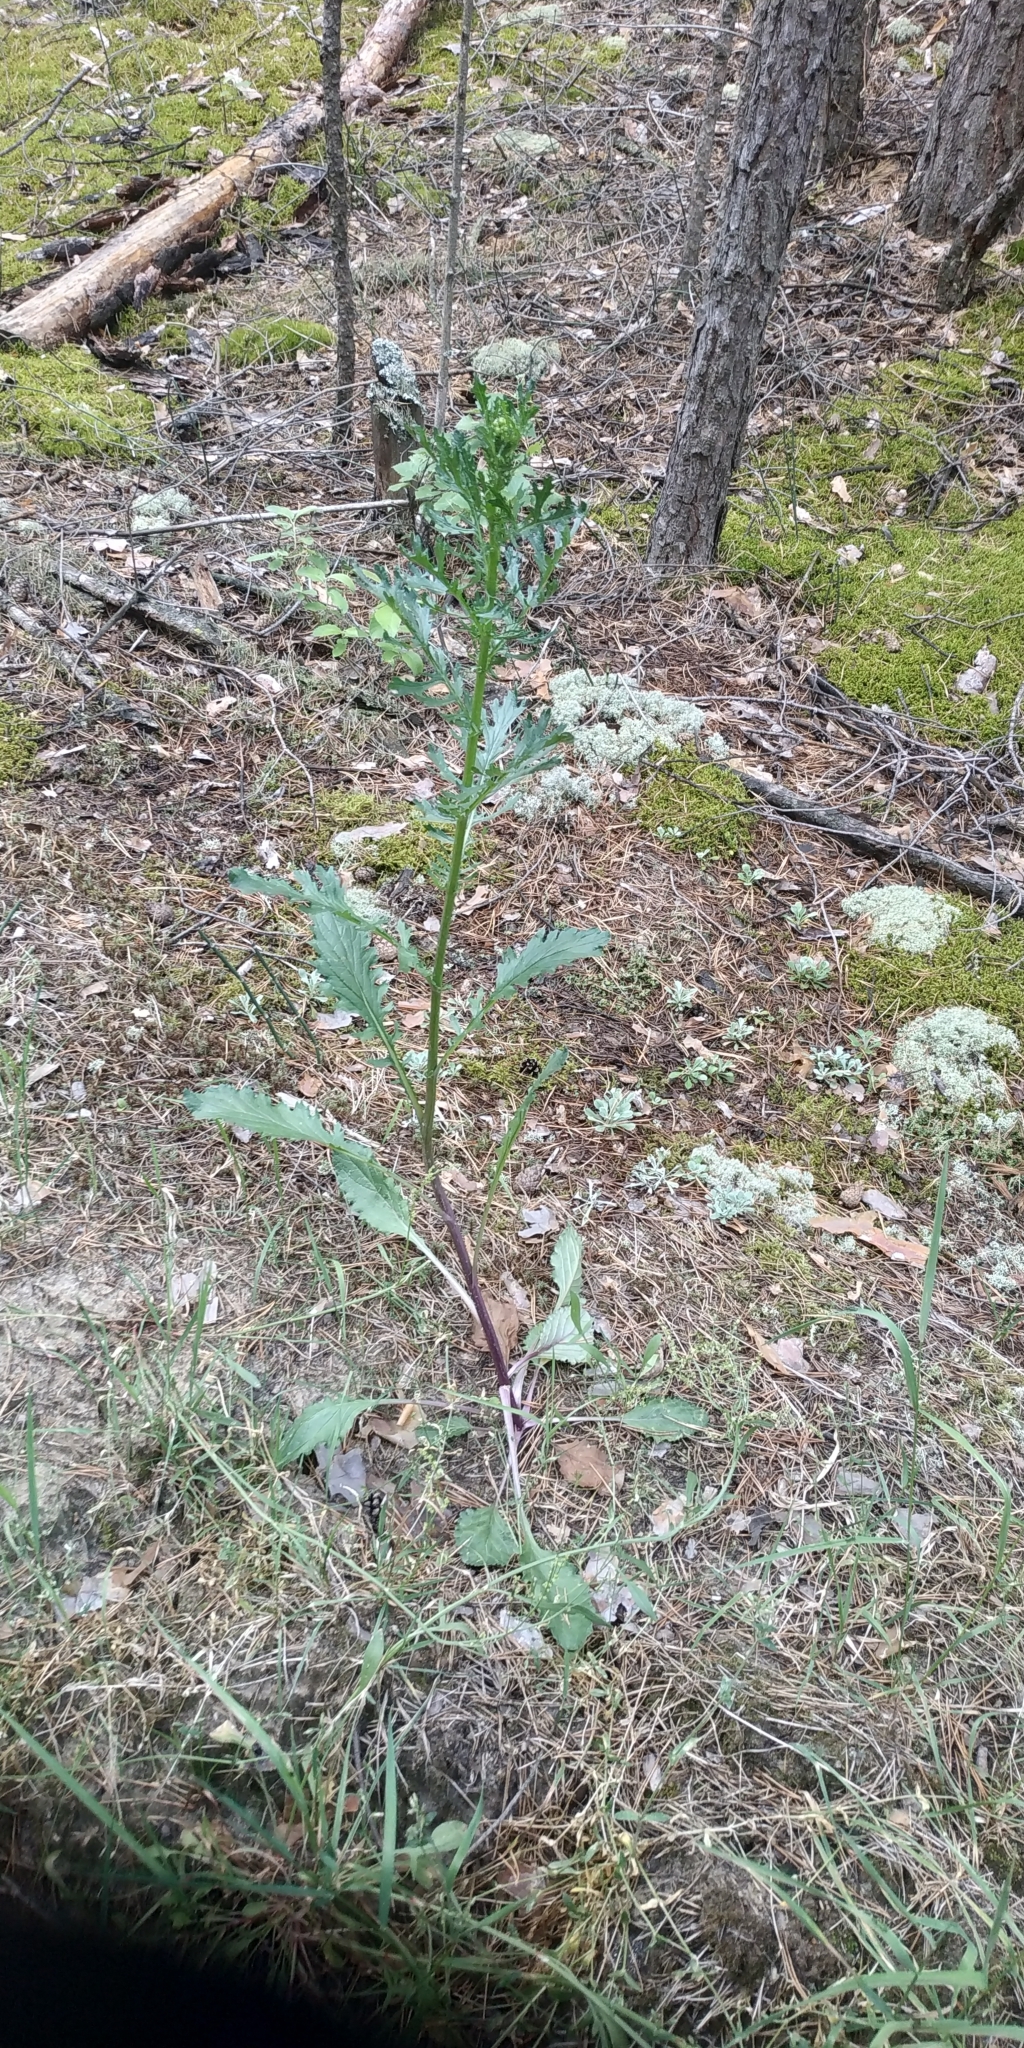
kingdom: Plantae
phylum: Tracheophyta
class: Magnoliopsida
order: Asterales
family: Asteraceae
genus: Jacobaea
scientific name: Jacobaea vulgaris
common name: Stinking willie
